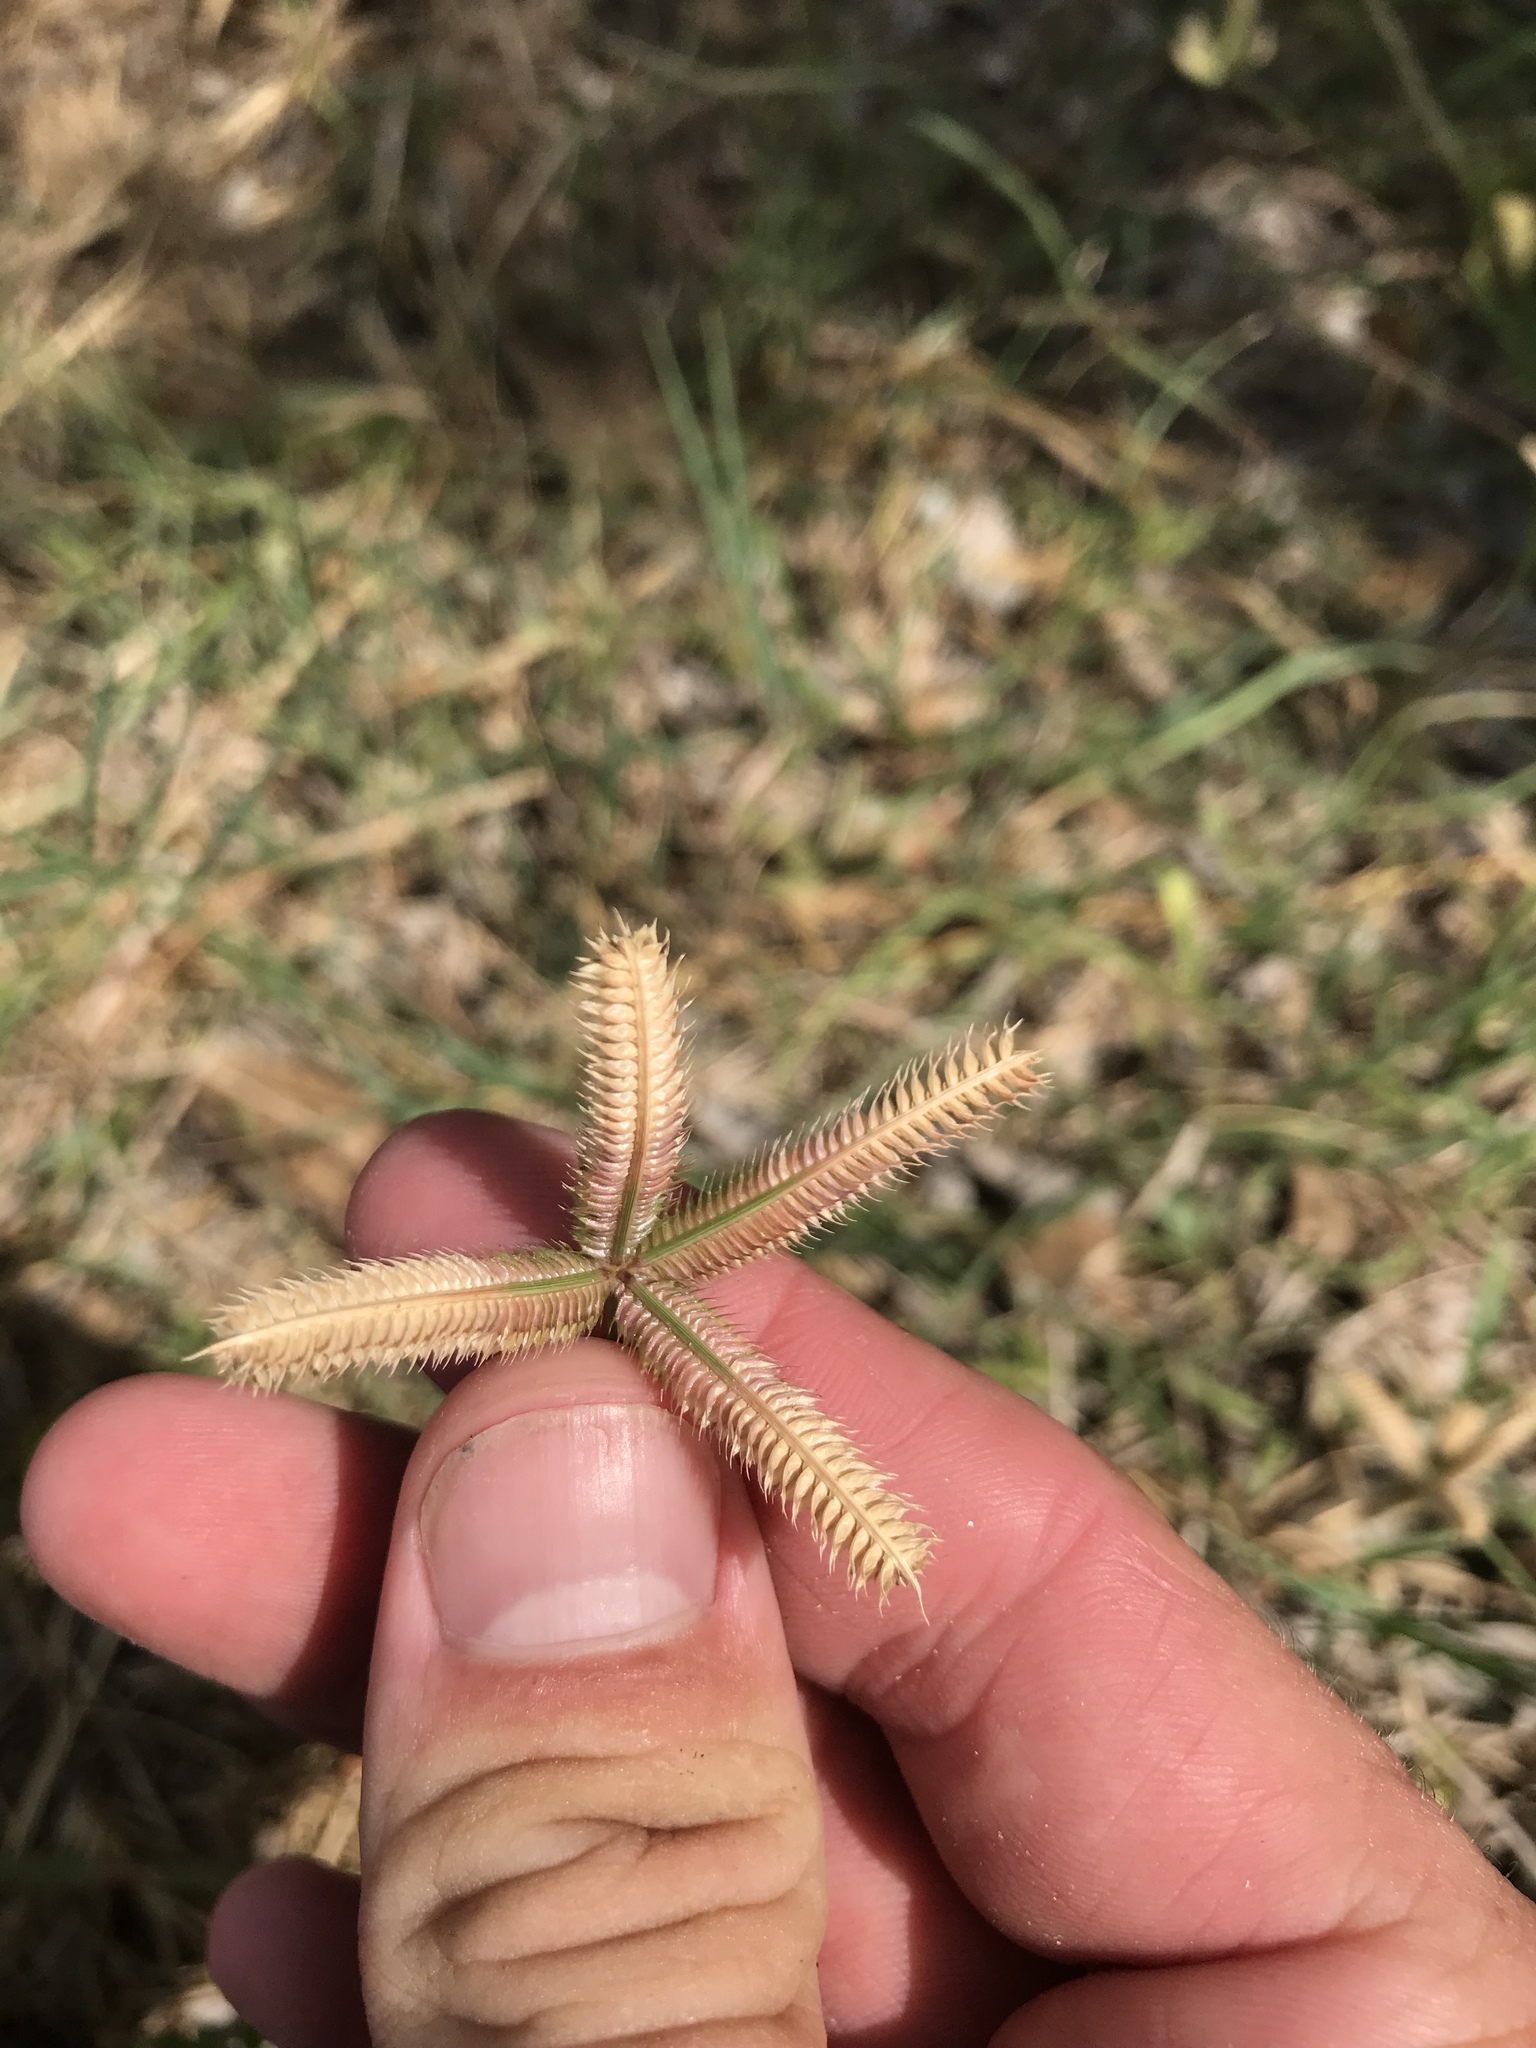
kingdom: Plantae
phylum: Tracheophyta
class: Liliopsida
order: Poales
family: Poaceae
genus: Dactyloctenium
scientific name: Dactyloctenium aegyptium
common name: Egyptian grass
